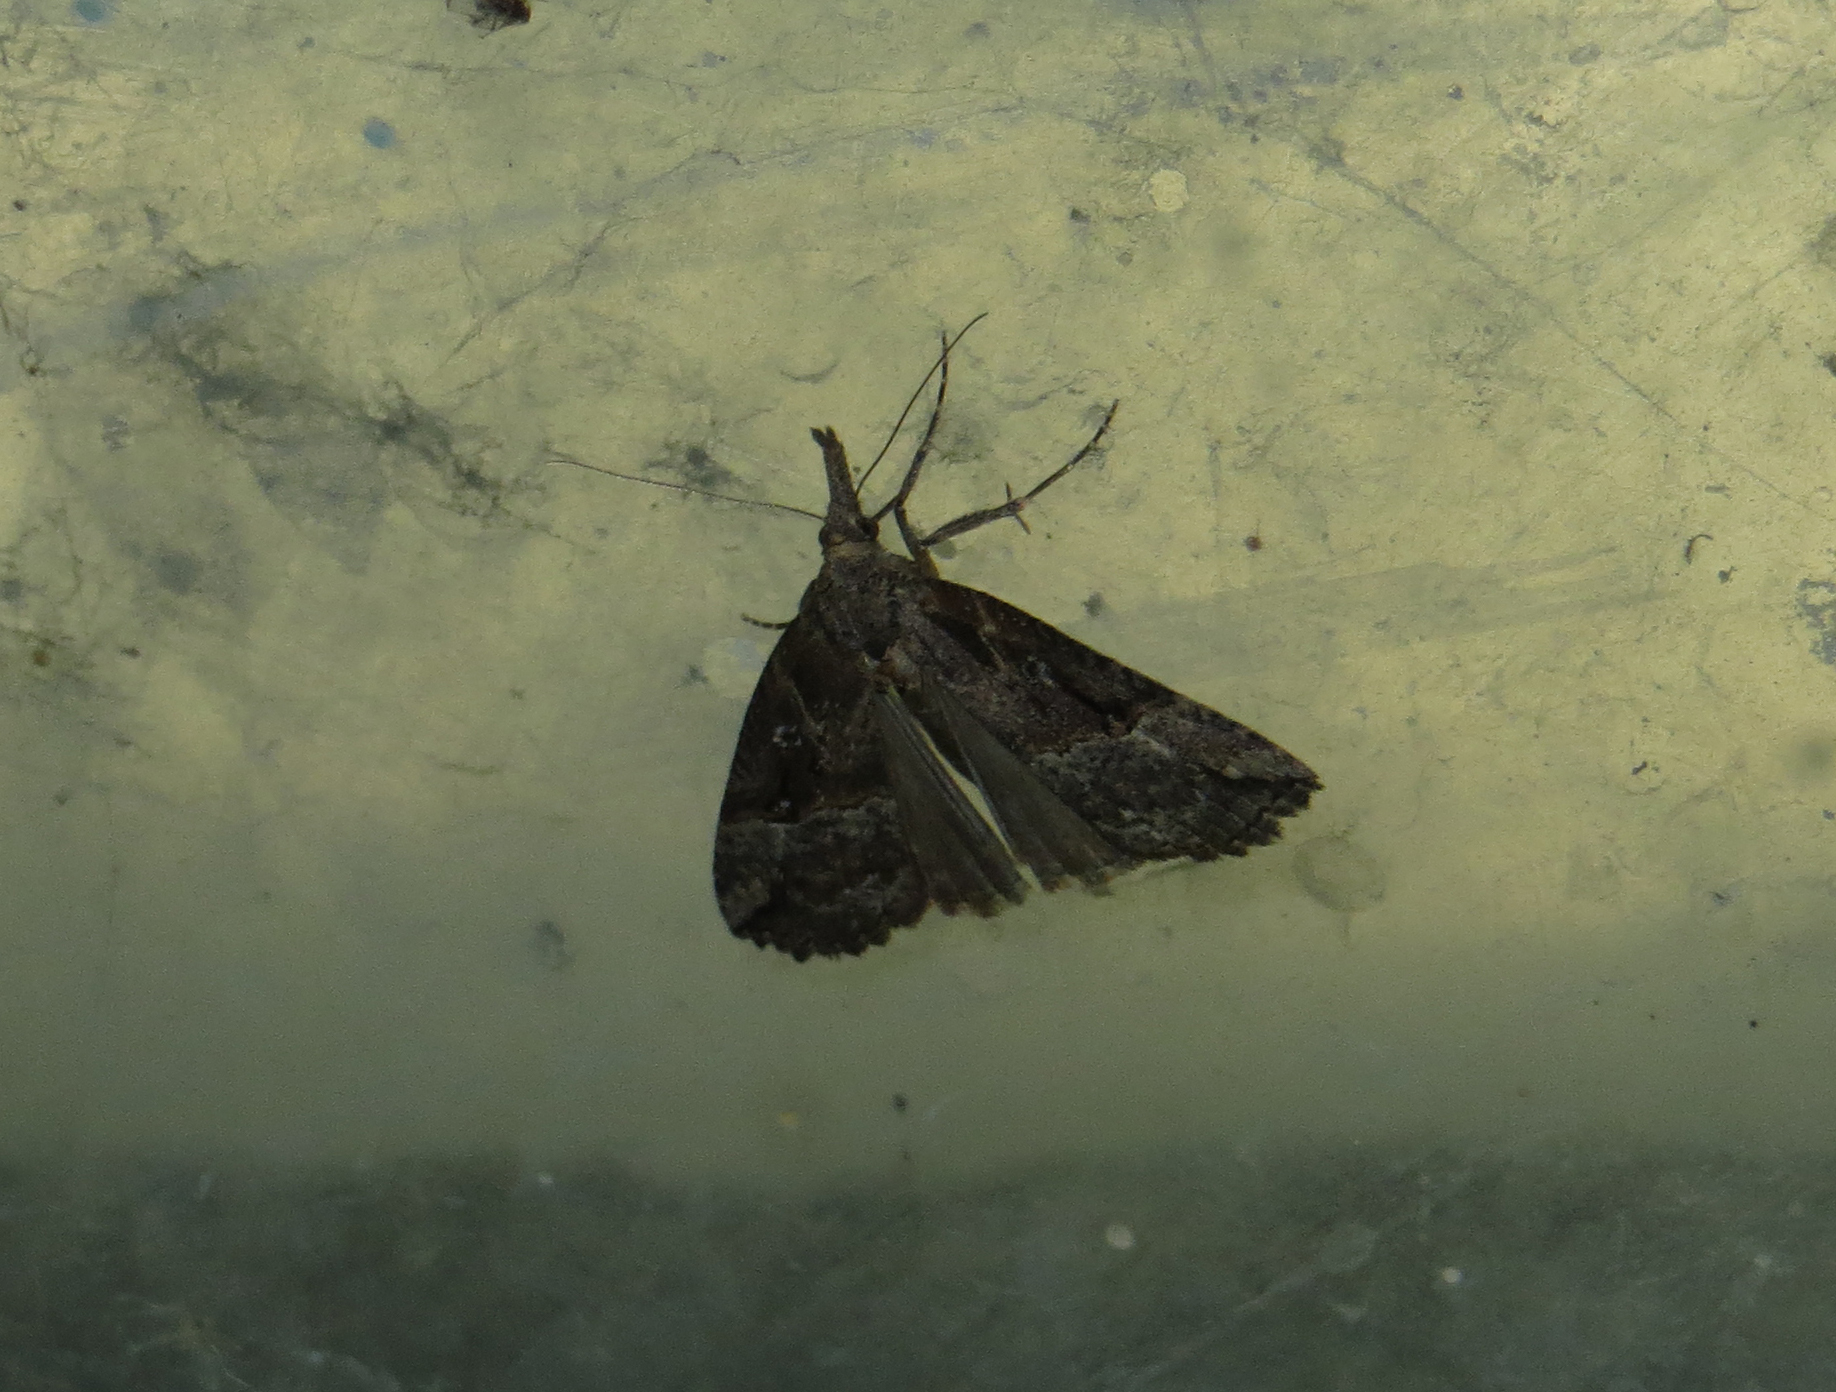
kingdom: Animalia
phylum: Arthropoda
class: Insecta
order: Lepidoptera
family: Erebidae
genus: Hypena
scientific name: Hypena rostralis
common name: Buttoned snout
